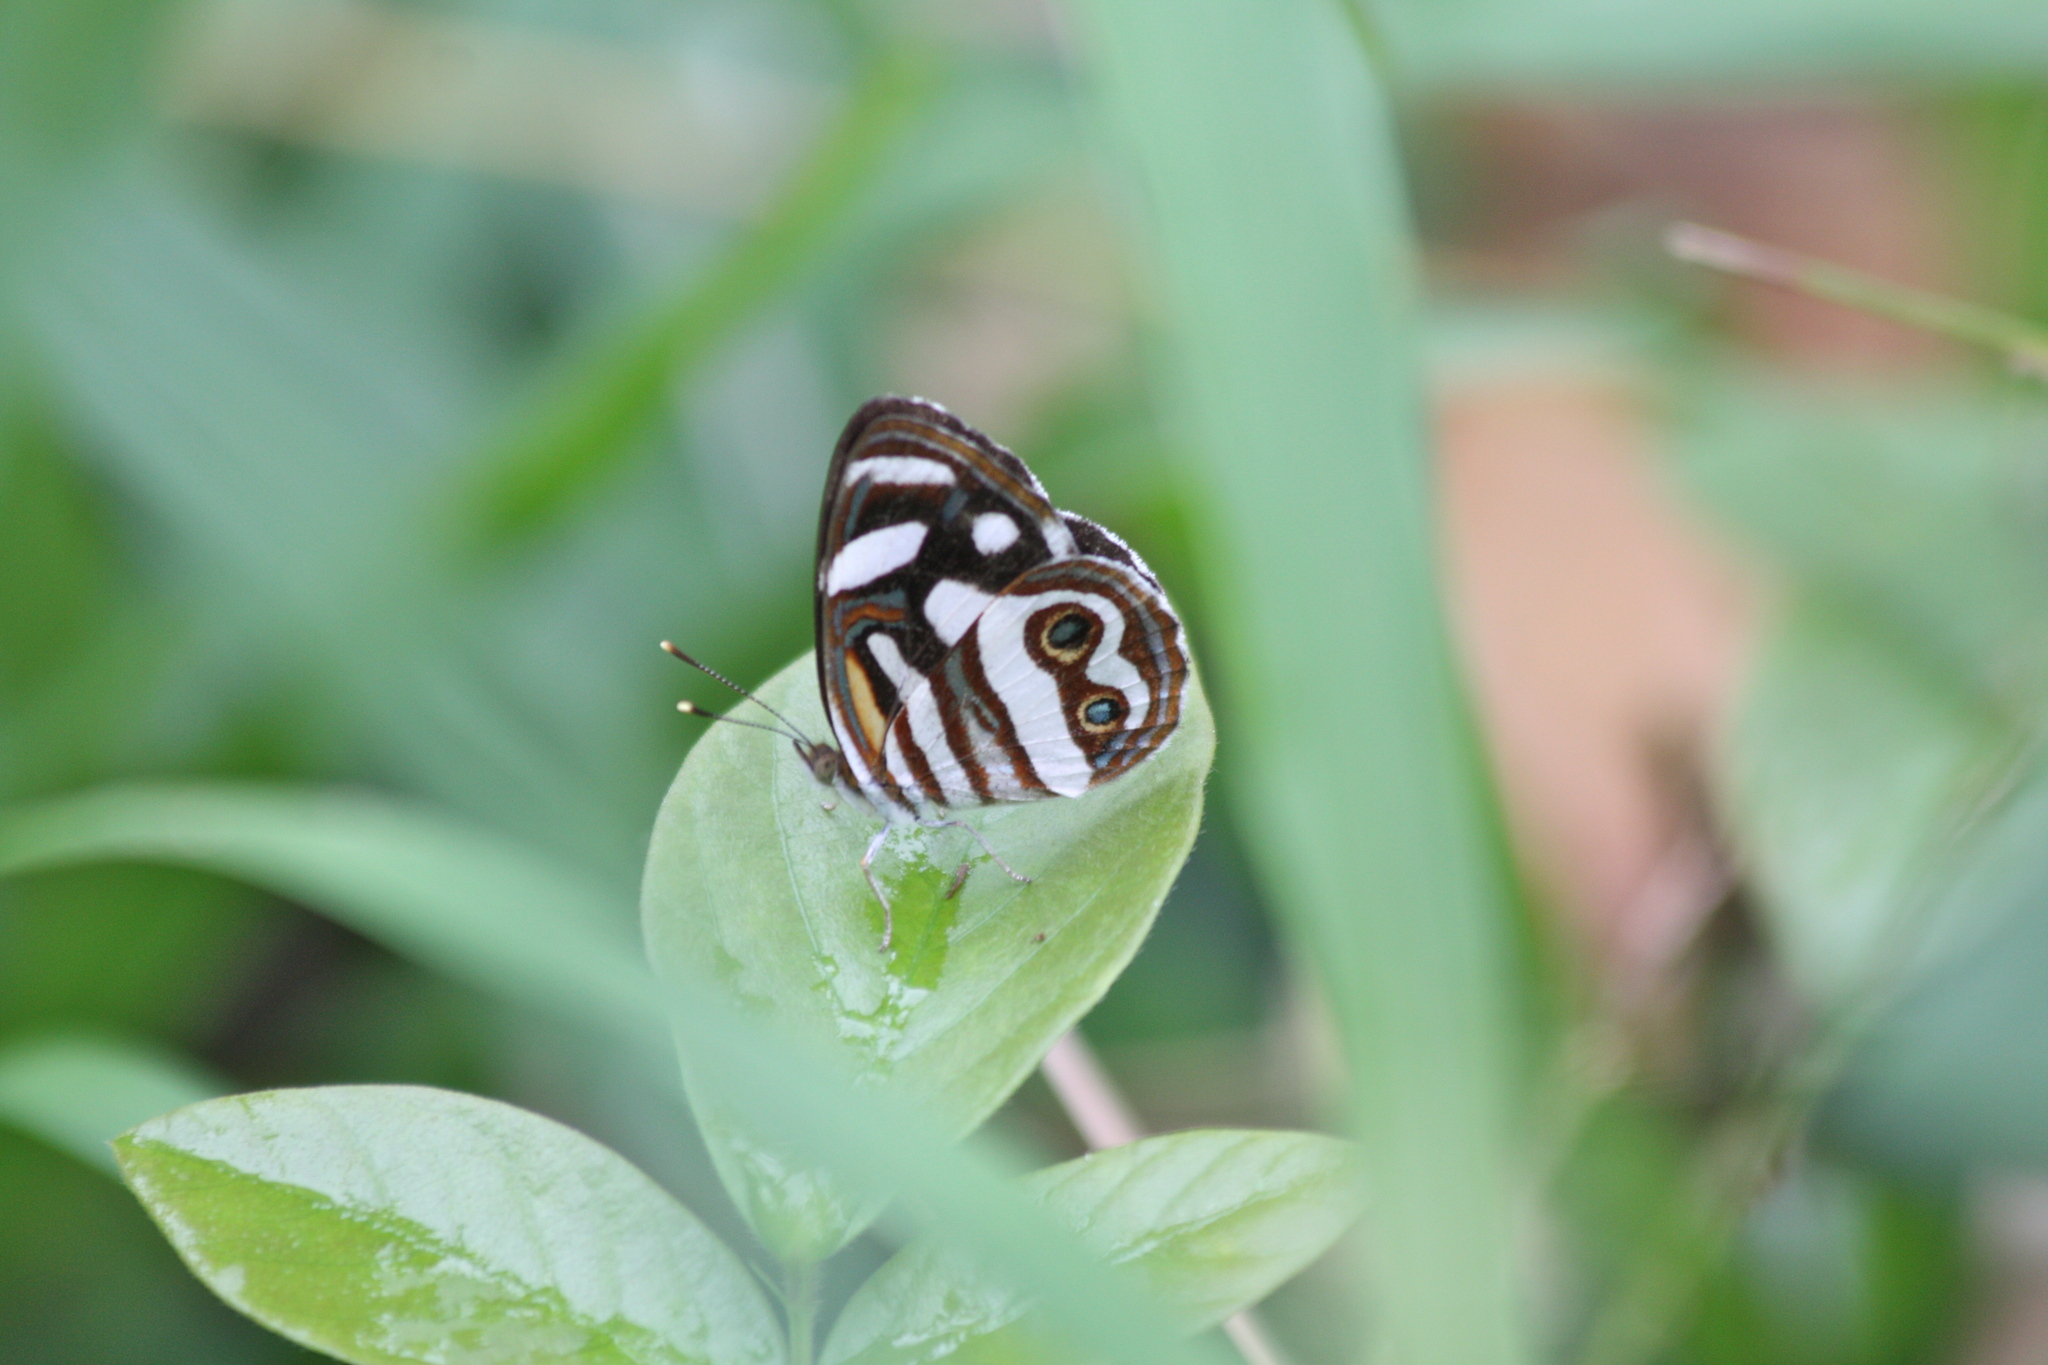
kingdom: Animalia
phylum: Arthropoda
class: Insecta
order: Lepidoptera
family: Nymphalidae
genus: Dynamine
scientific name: Dynamine dyonis
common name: Blue-eyed sailor
